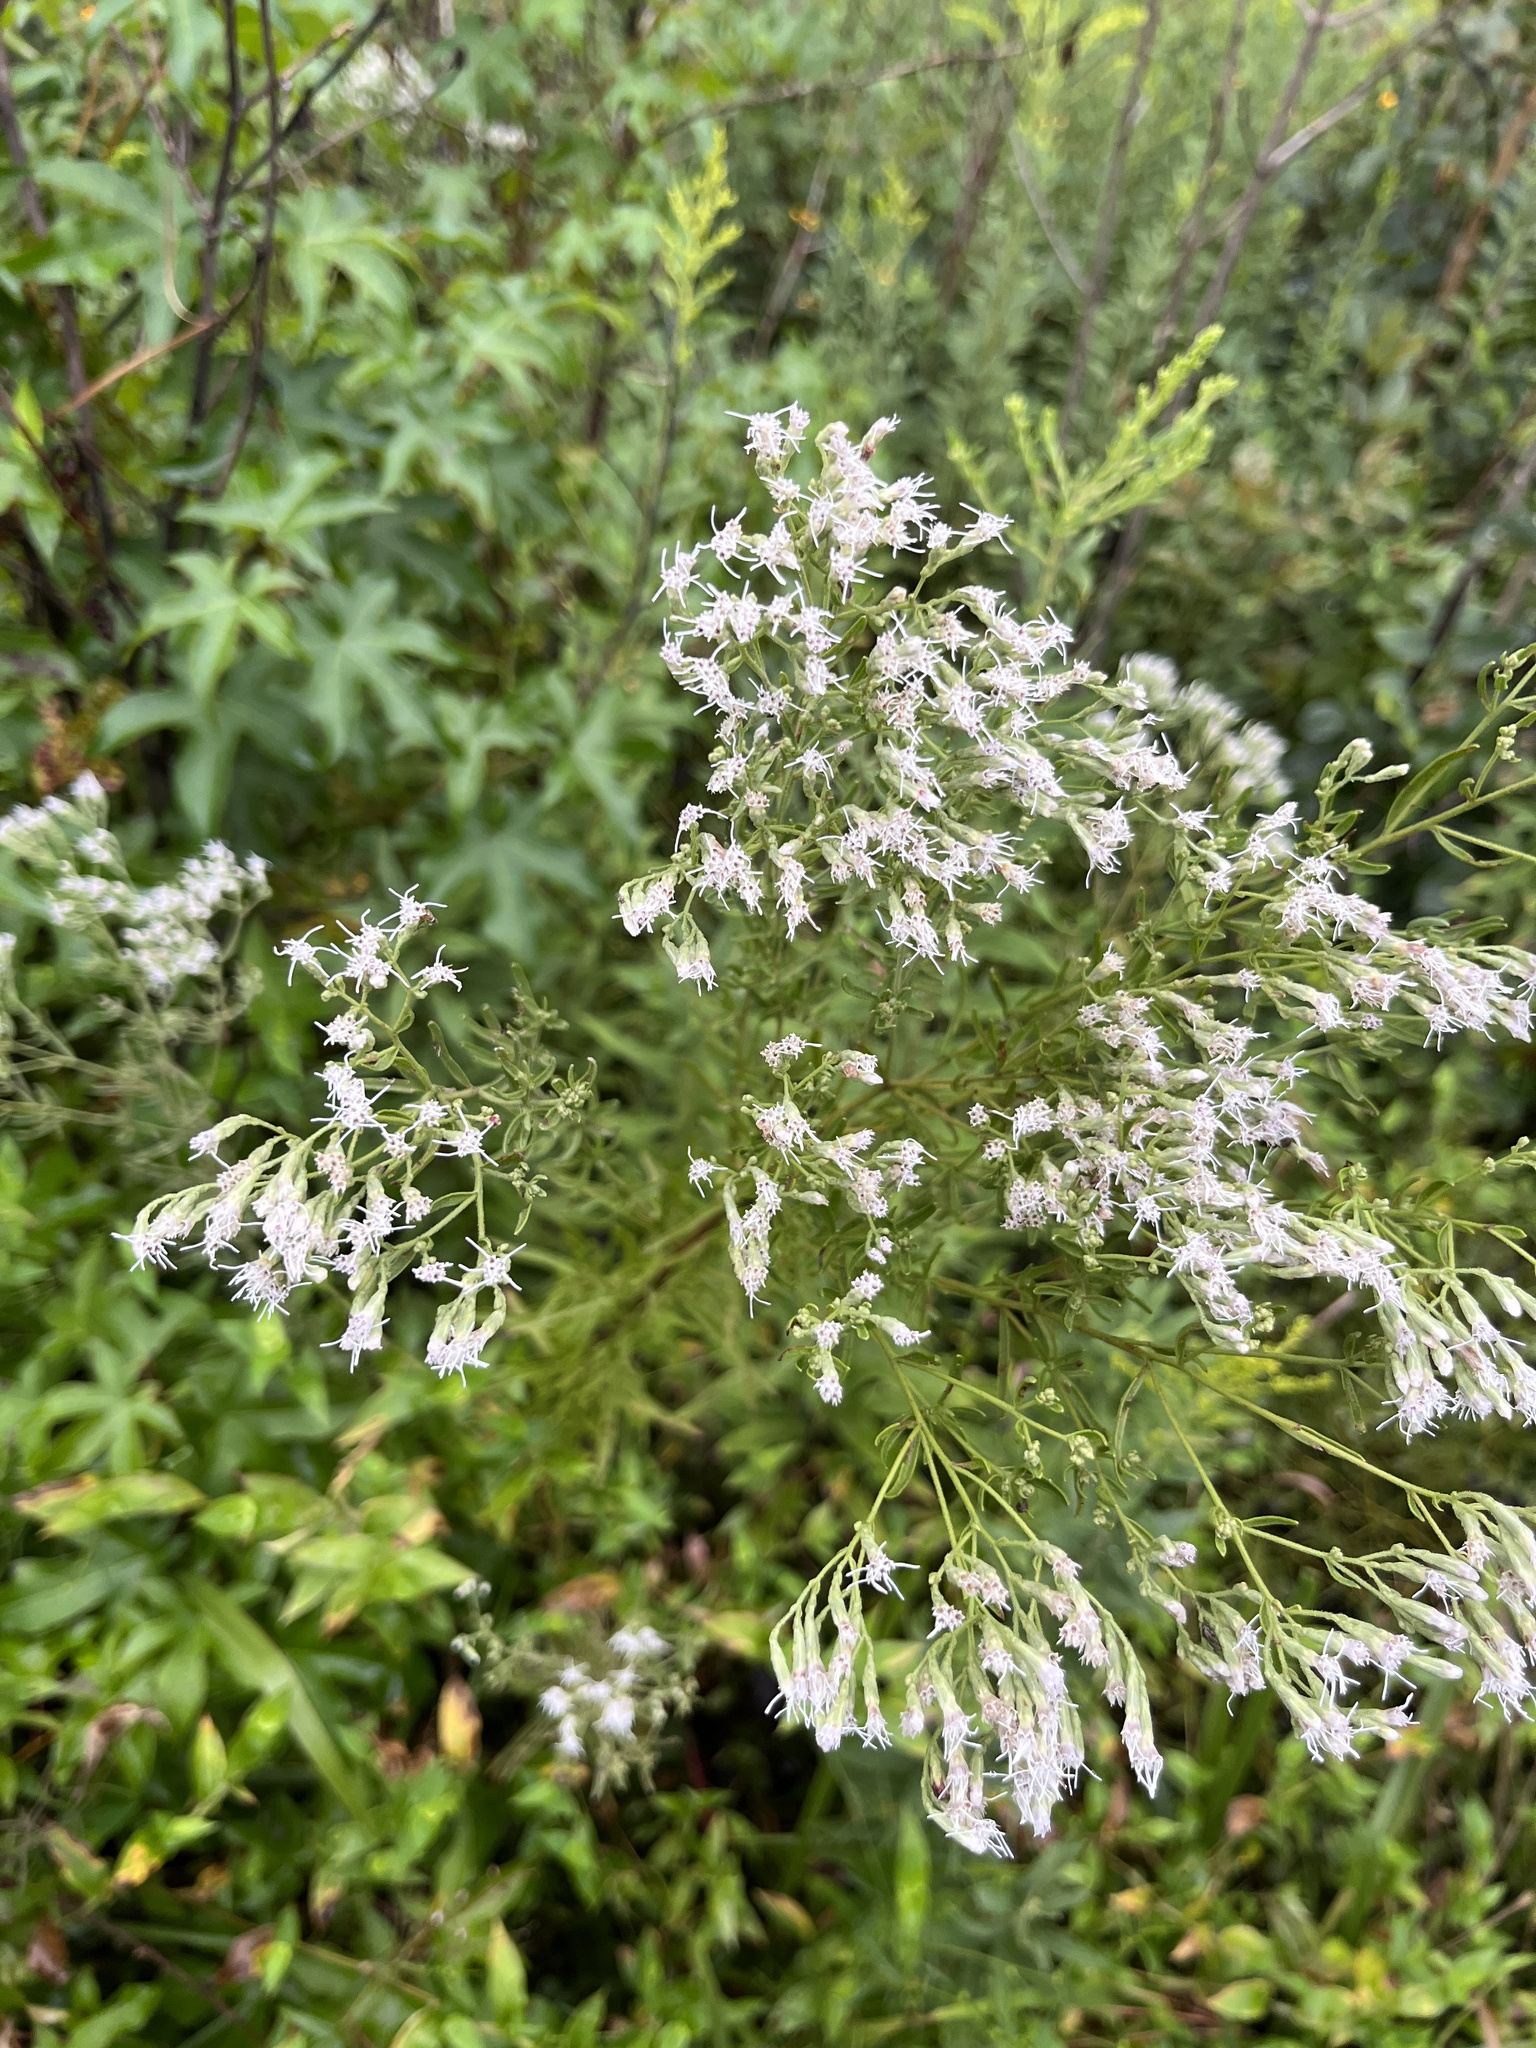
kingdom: Plantae
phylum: Tracheophyta
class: Magnoliopsida
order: Asterales
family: Asteraceae
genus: Eupatorium
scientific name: Eupatorium hyssopifolium
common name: Hyssop-leaf thoroughwort
